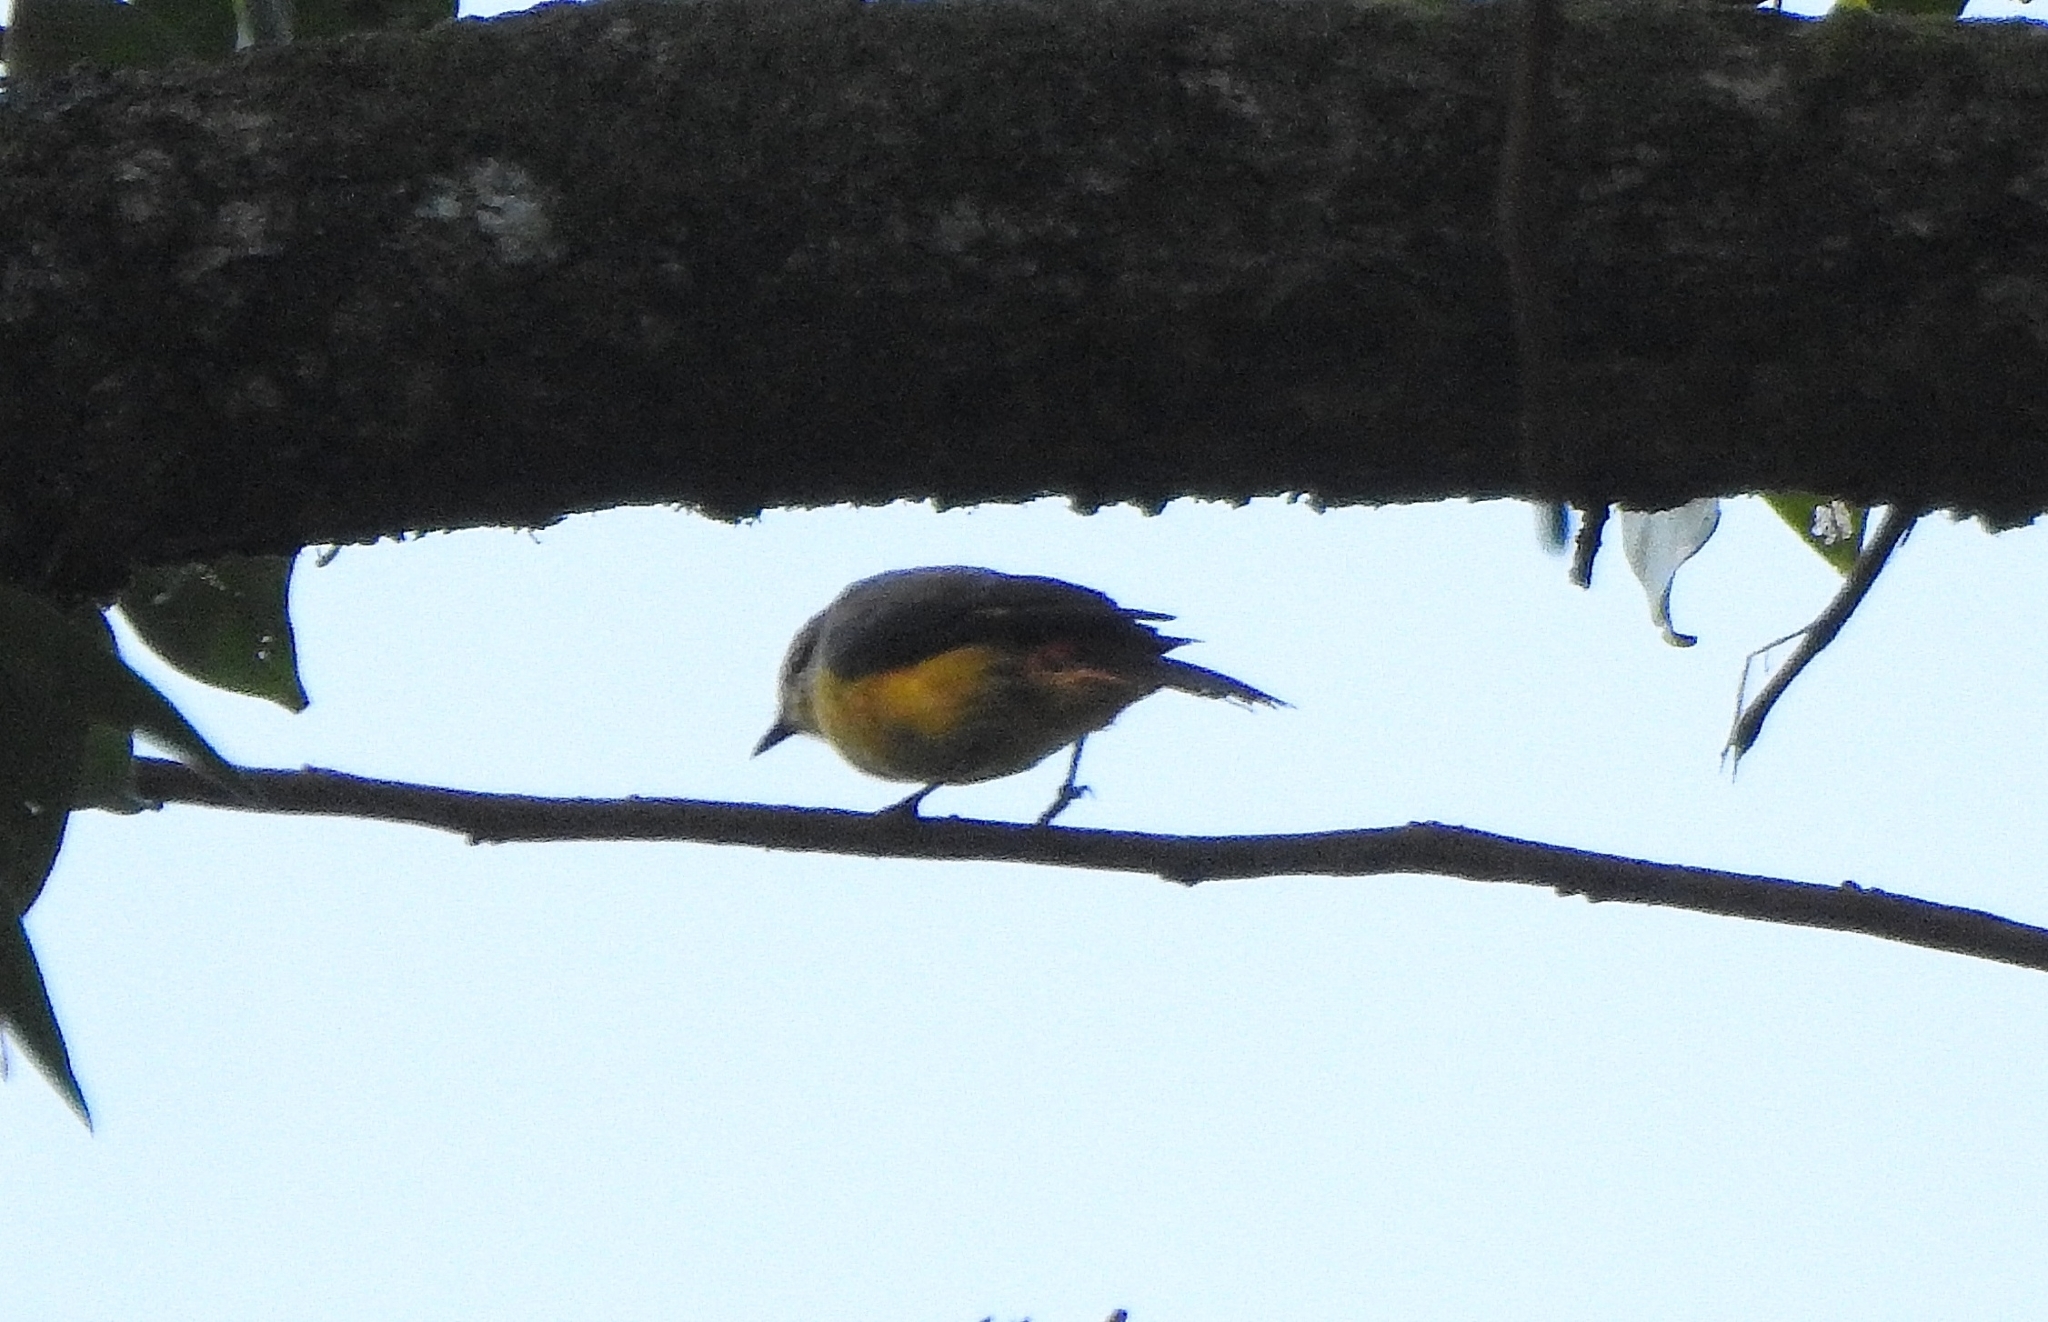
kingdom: Animalia
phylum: Chordata
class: Aves
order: Passeriformes
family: Campephagidae
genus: Pericrocotus
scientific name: Pericrocotus cinnamomeus
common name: Small minivet
